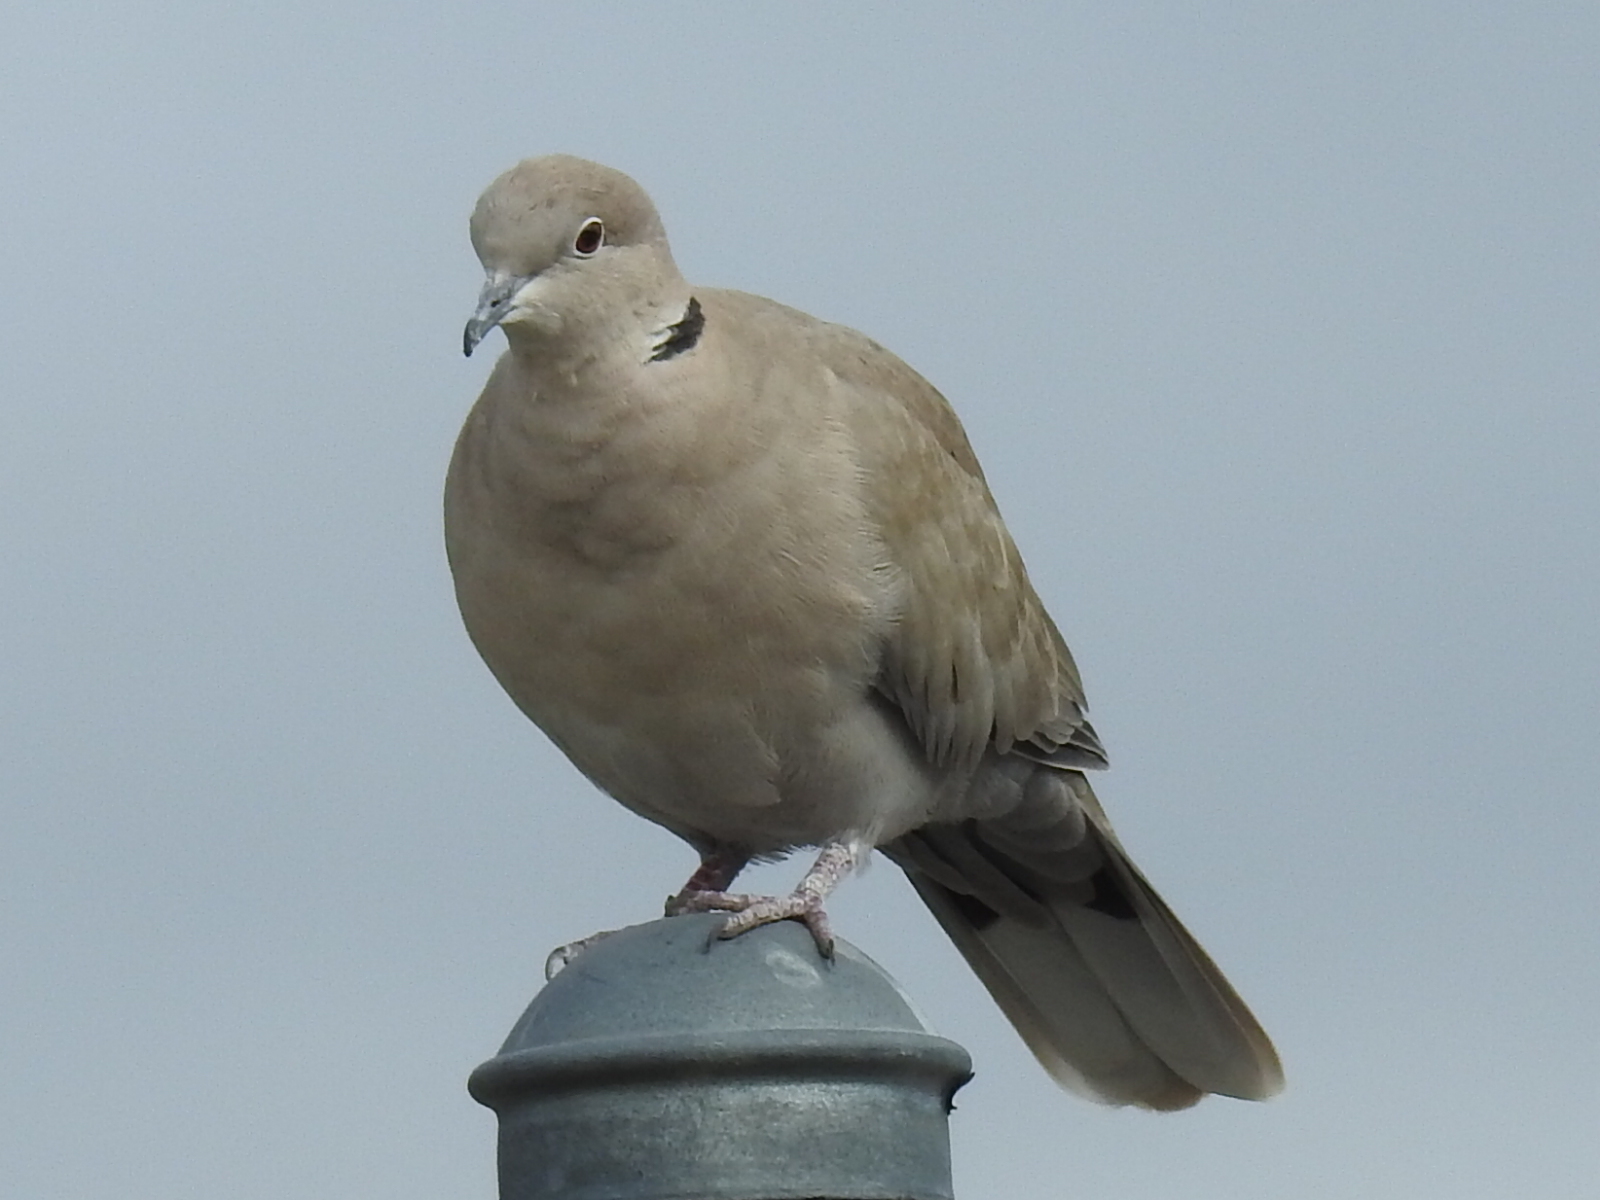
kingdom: Animalia
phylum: Chordata
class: Aves
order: Columbiformes
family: Columbidae
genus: Streptopelia
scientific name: Streptopelia decaocto
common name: Eurasian collared dove
